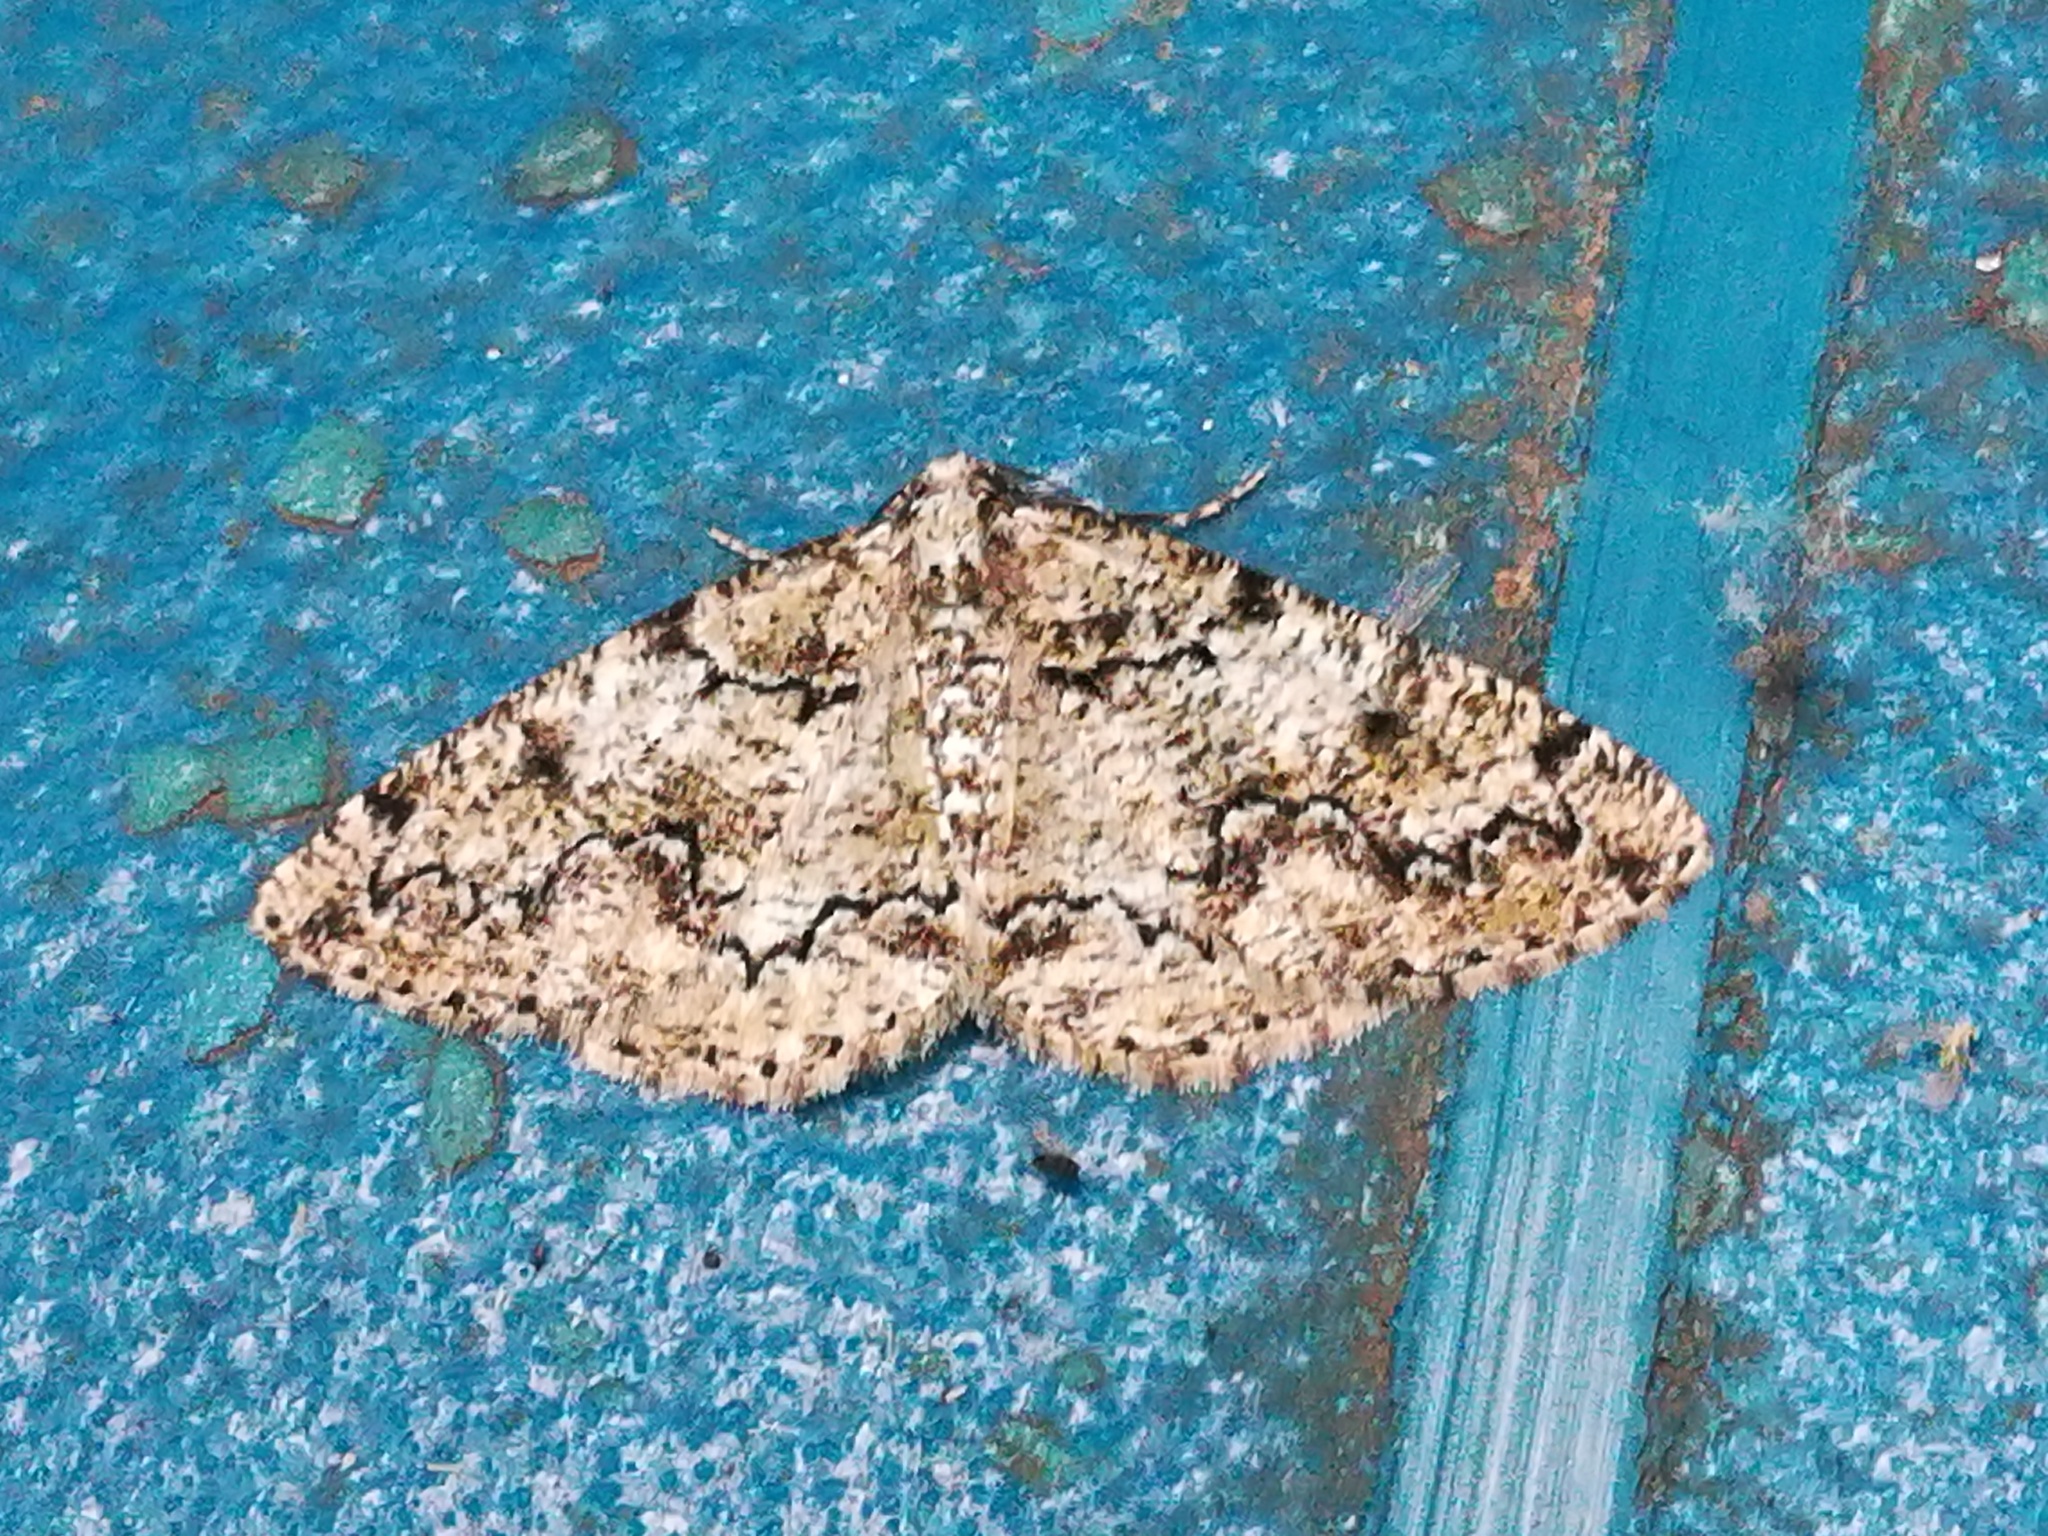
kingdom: Animalia
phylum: Arthropoda
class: Insecta
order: Lepidoptera
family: Geometridae
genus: Cleorodes
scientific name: Cleorodes lichenaria
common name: Brussels lace
